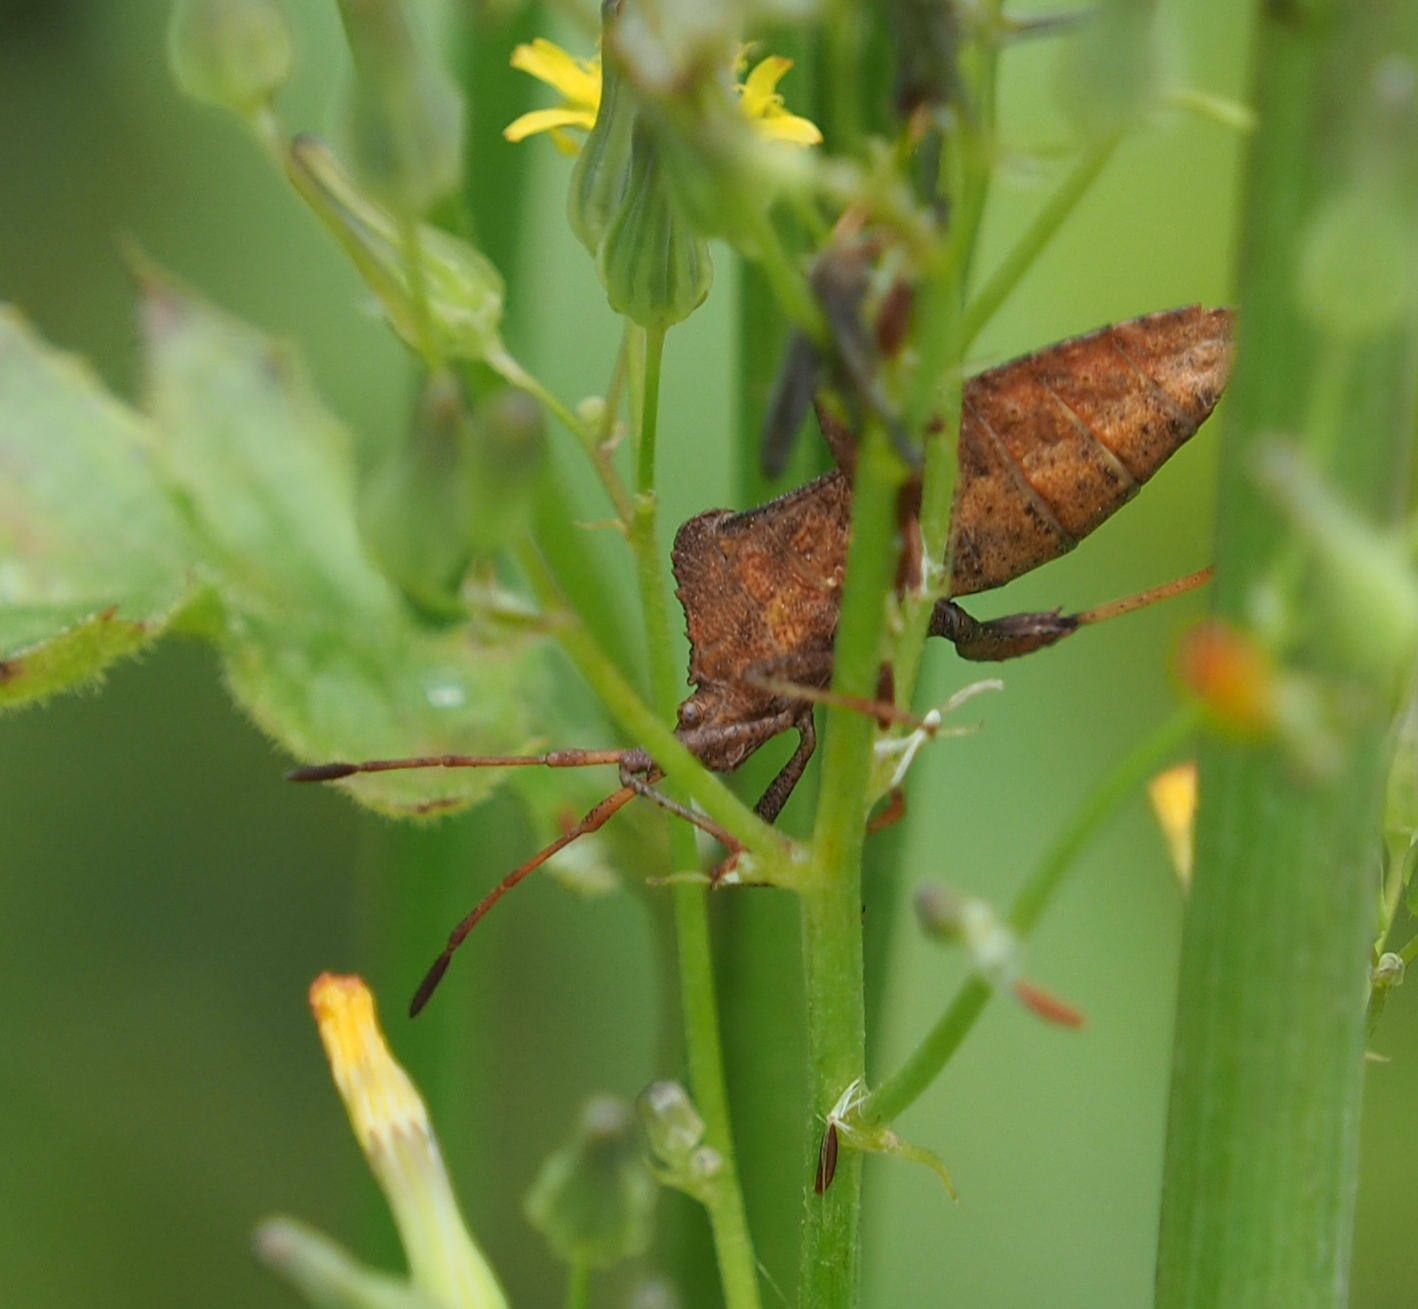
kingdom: Animalia
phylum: Arthropoda
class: Insecta
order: Hemiptera
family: Coreidae
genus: Euthochtha
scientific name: Euthochtha galeator
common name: Helmeted squash bug
